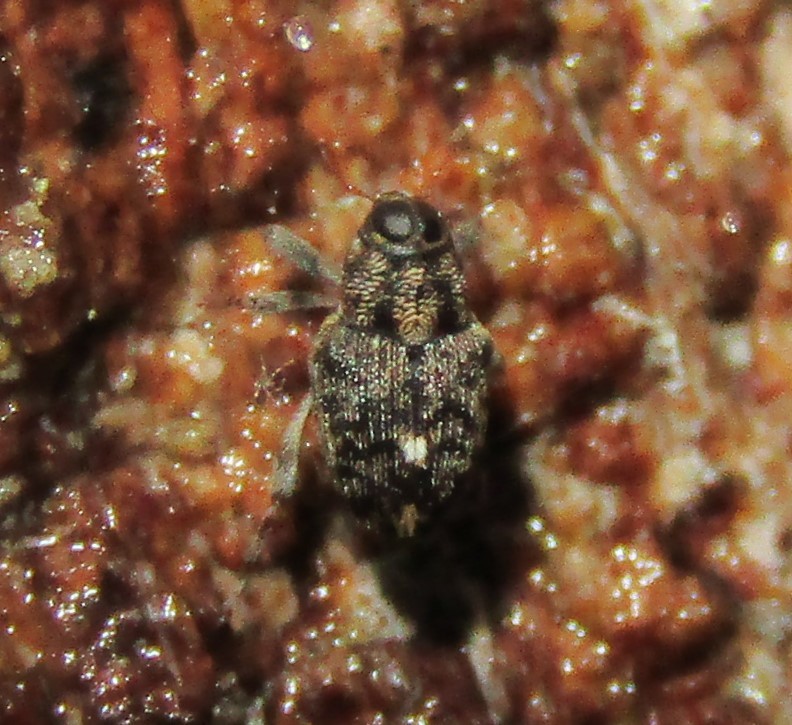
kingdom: Animalia
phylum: Arthropoda
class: Insecta
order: Coleoptera
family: Curculionidae
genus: Lechriops
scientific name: Lechriops oculatus
